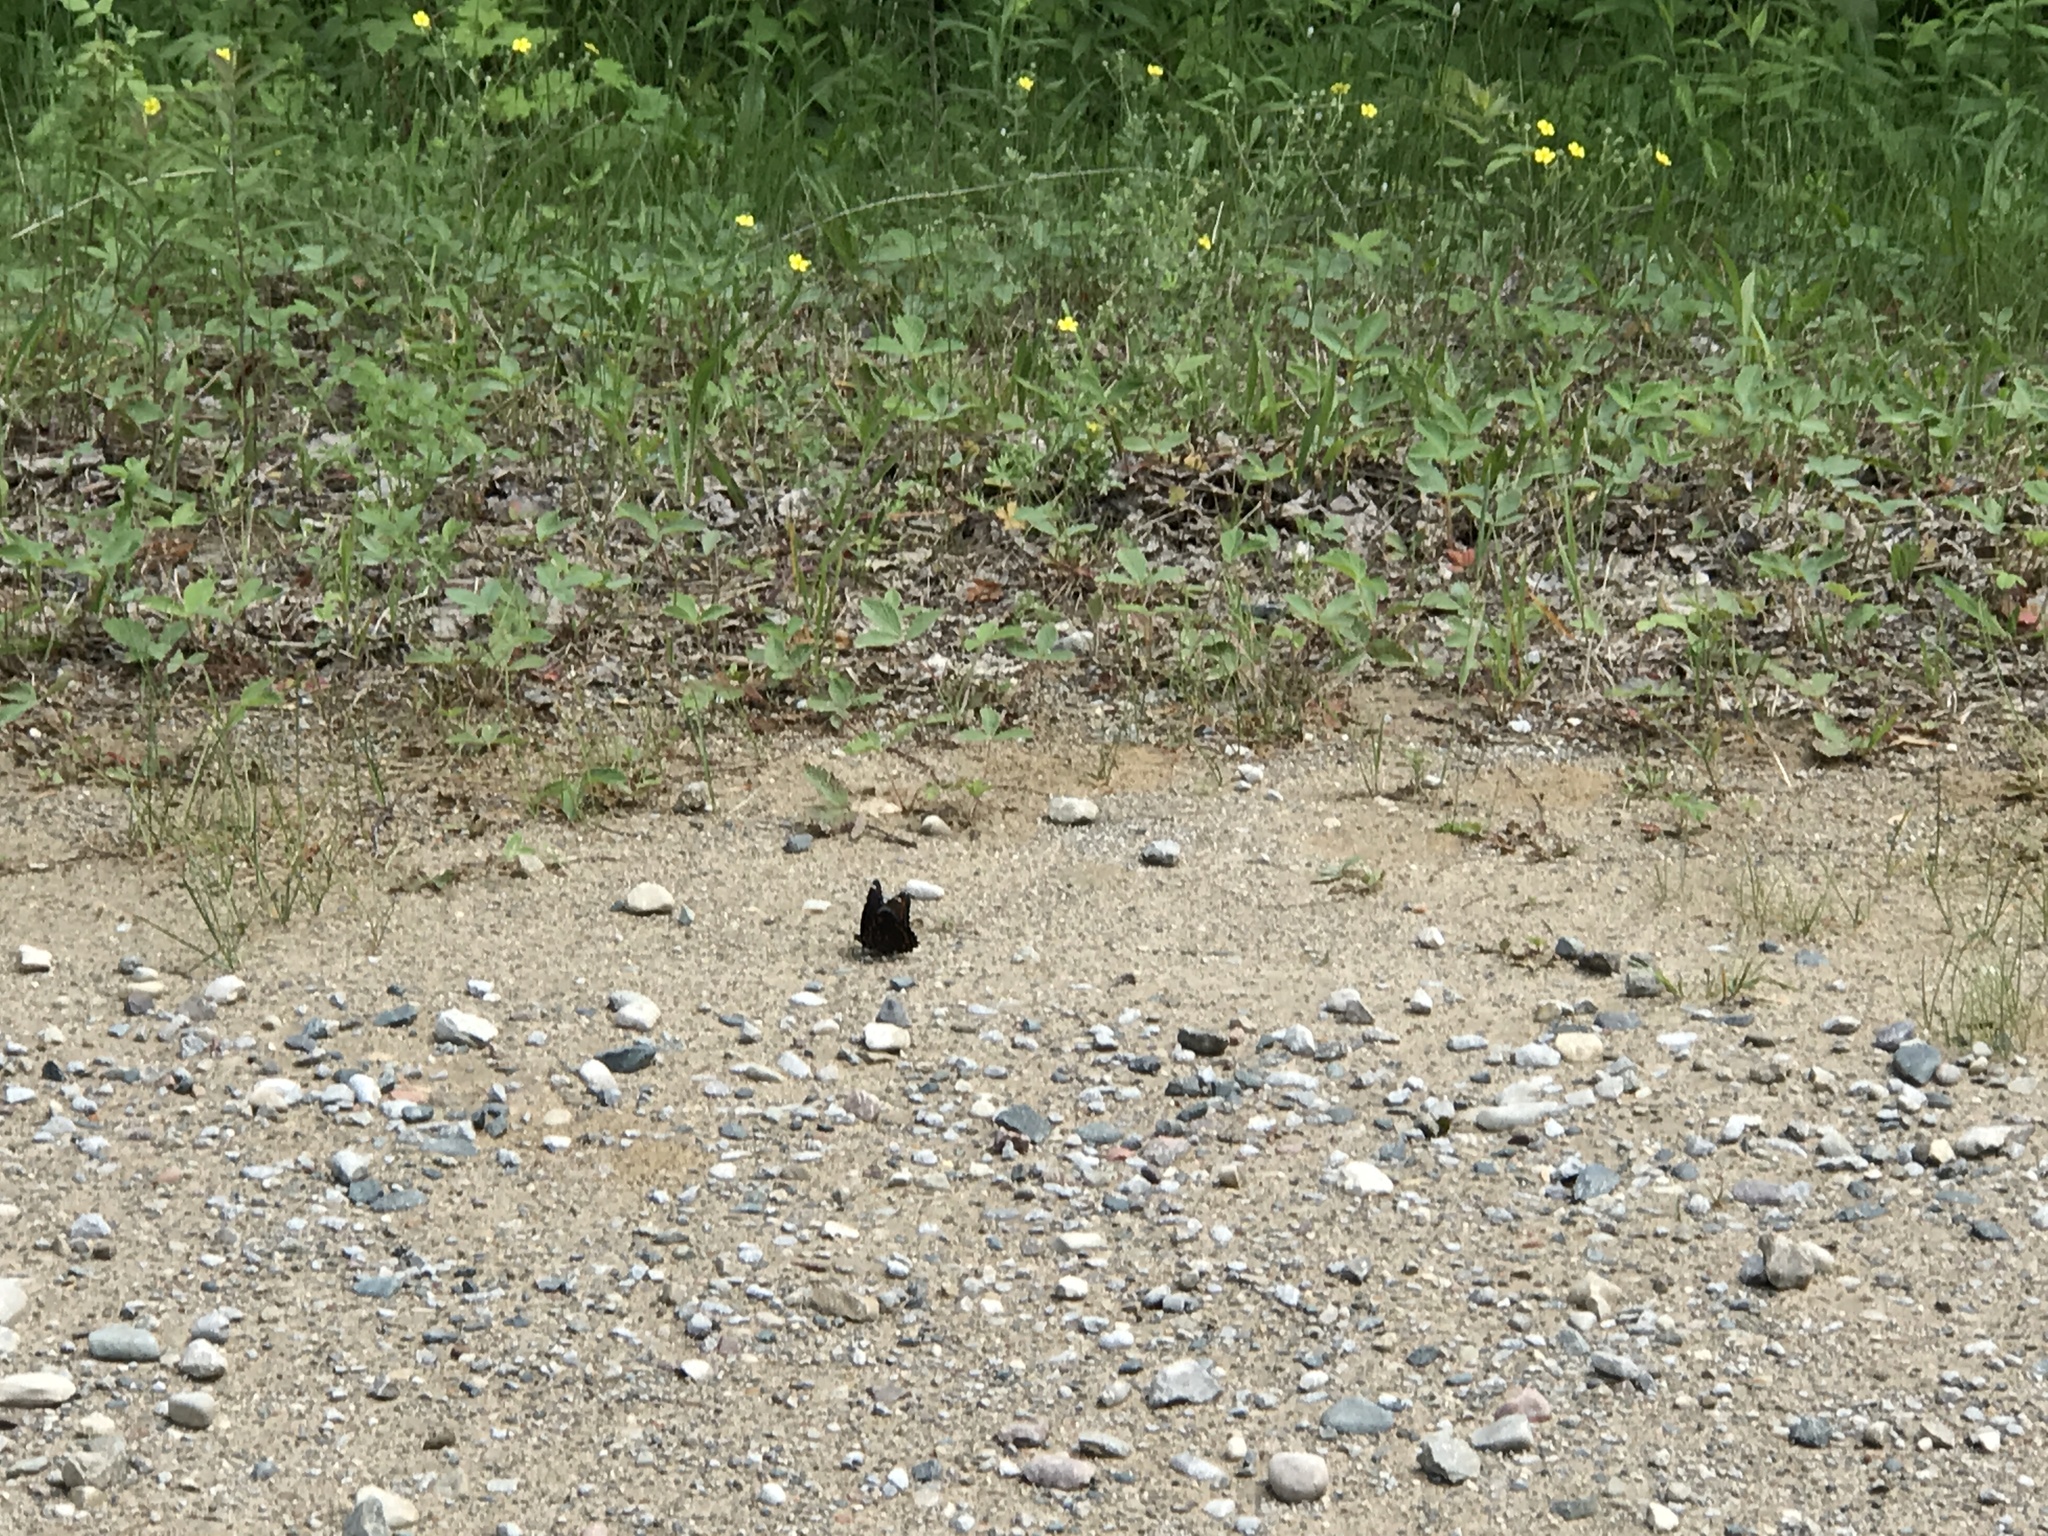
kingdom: Animalia
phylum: Arthropoda
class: Insecta
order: Lepidoptera
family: Nymphalidae
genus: Limenitis
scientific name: Limenitis arthemis
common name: Red-spotted admiral
